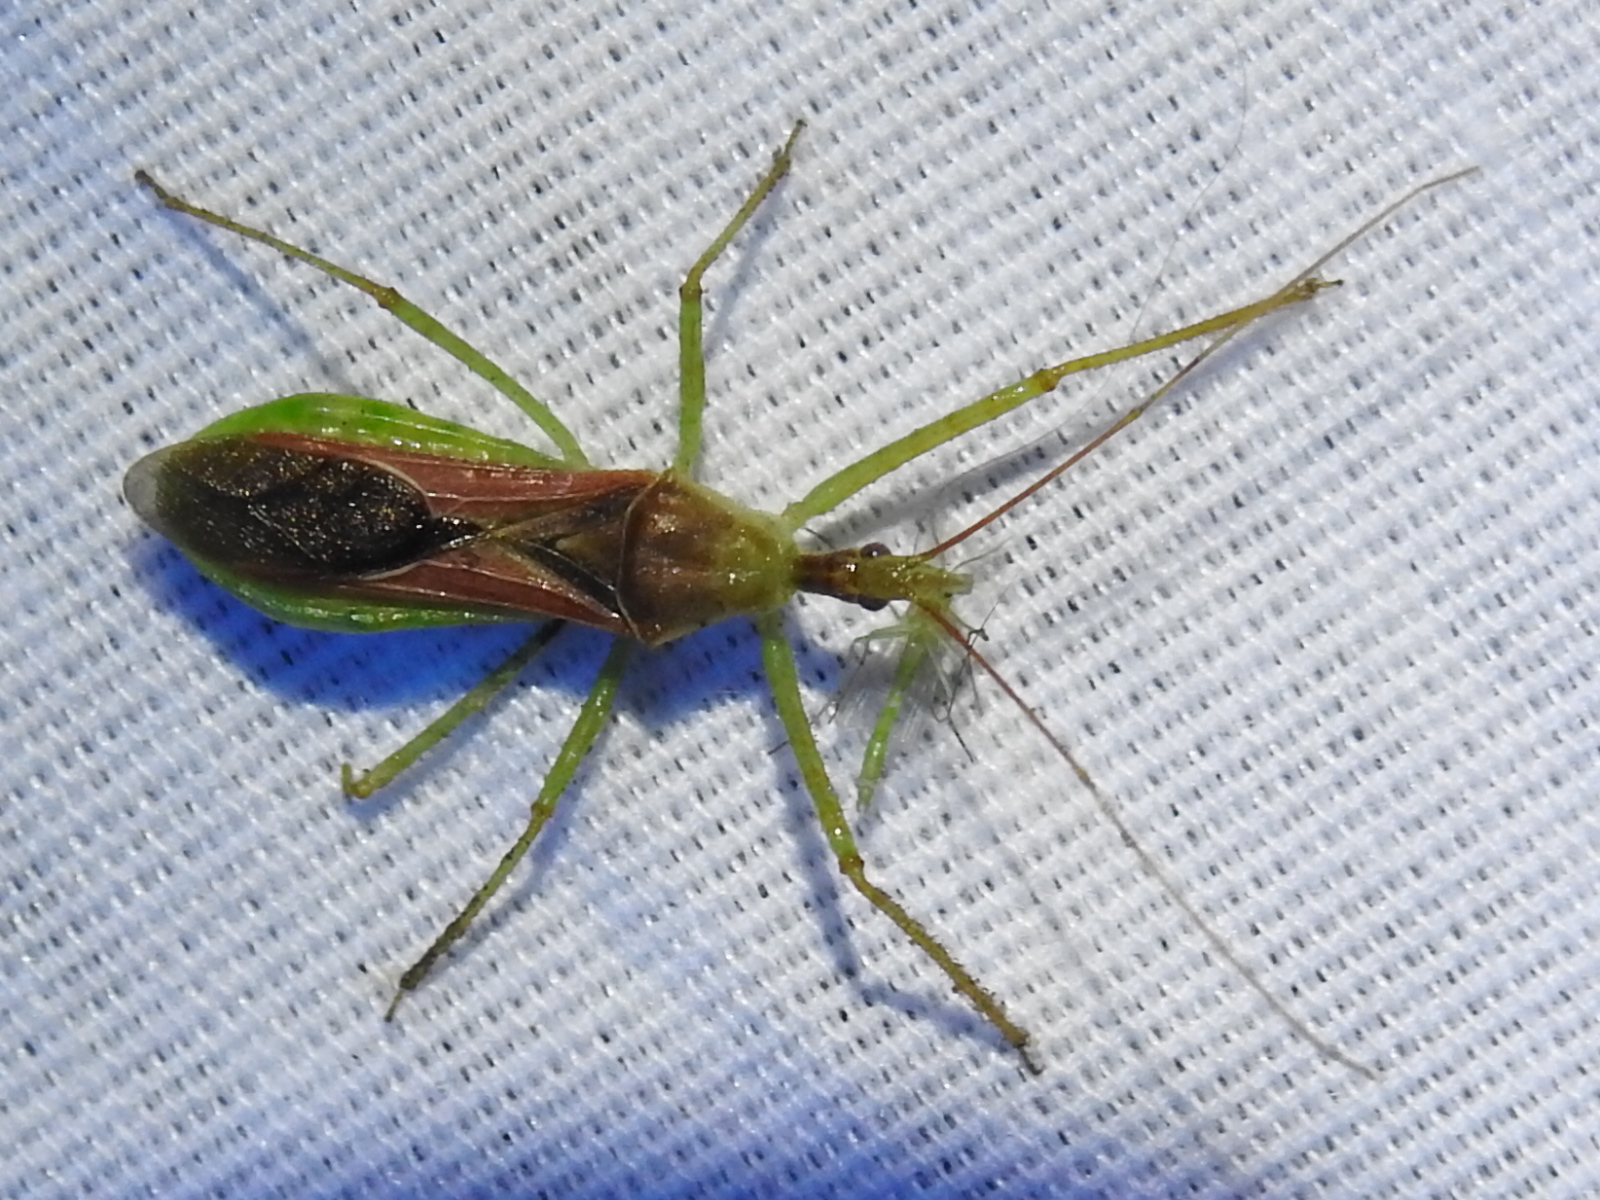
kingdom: Animalia
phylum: Arthropoda
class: Insecta
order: Hemiptera
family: Reduviidae
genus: Zelus
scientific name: Zelus renardii
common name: Assassin bug
